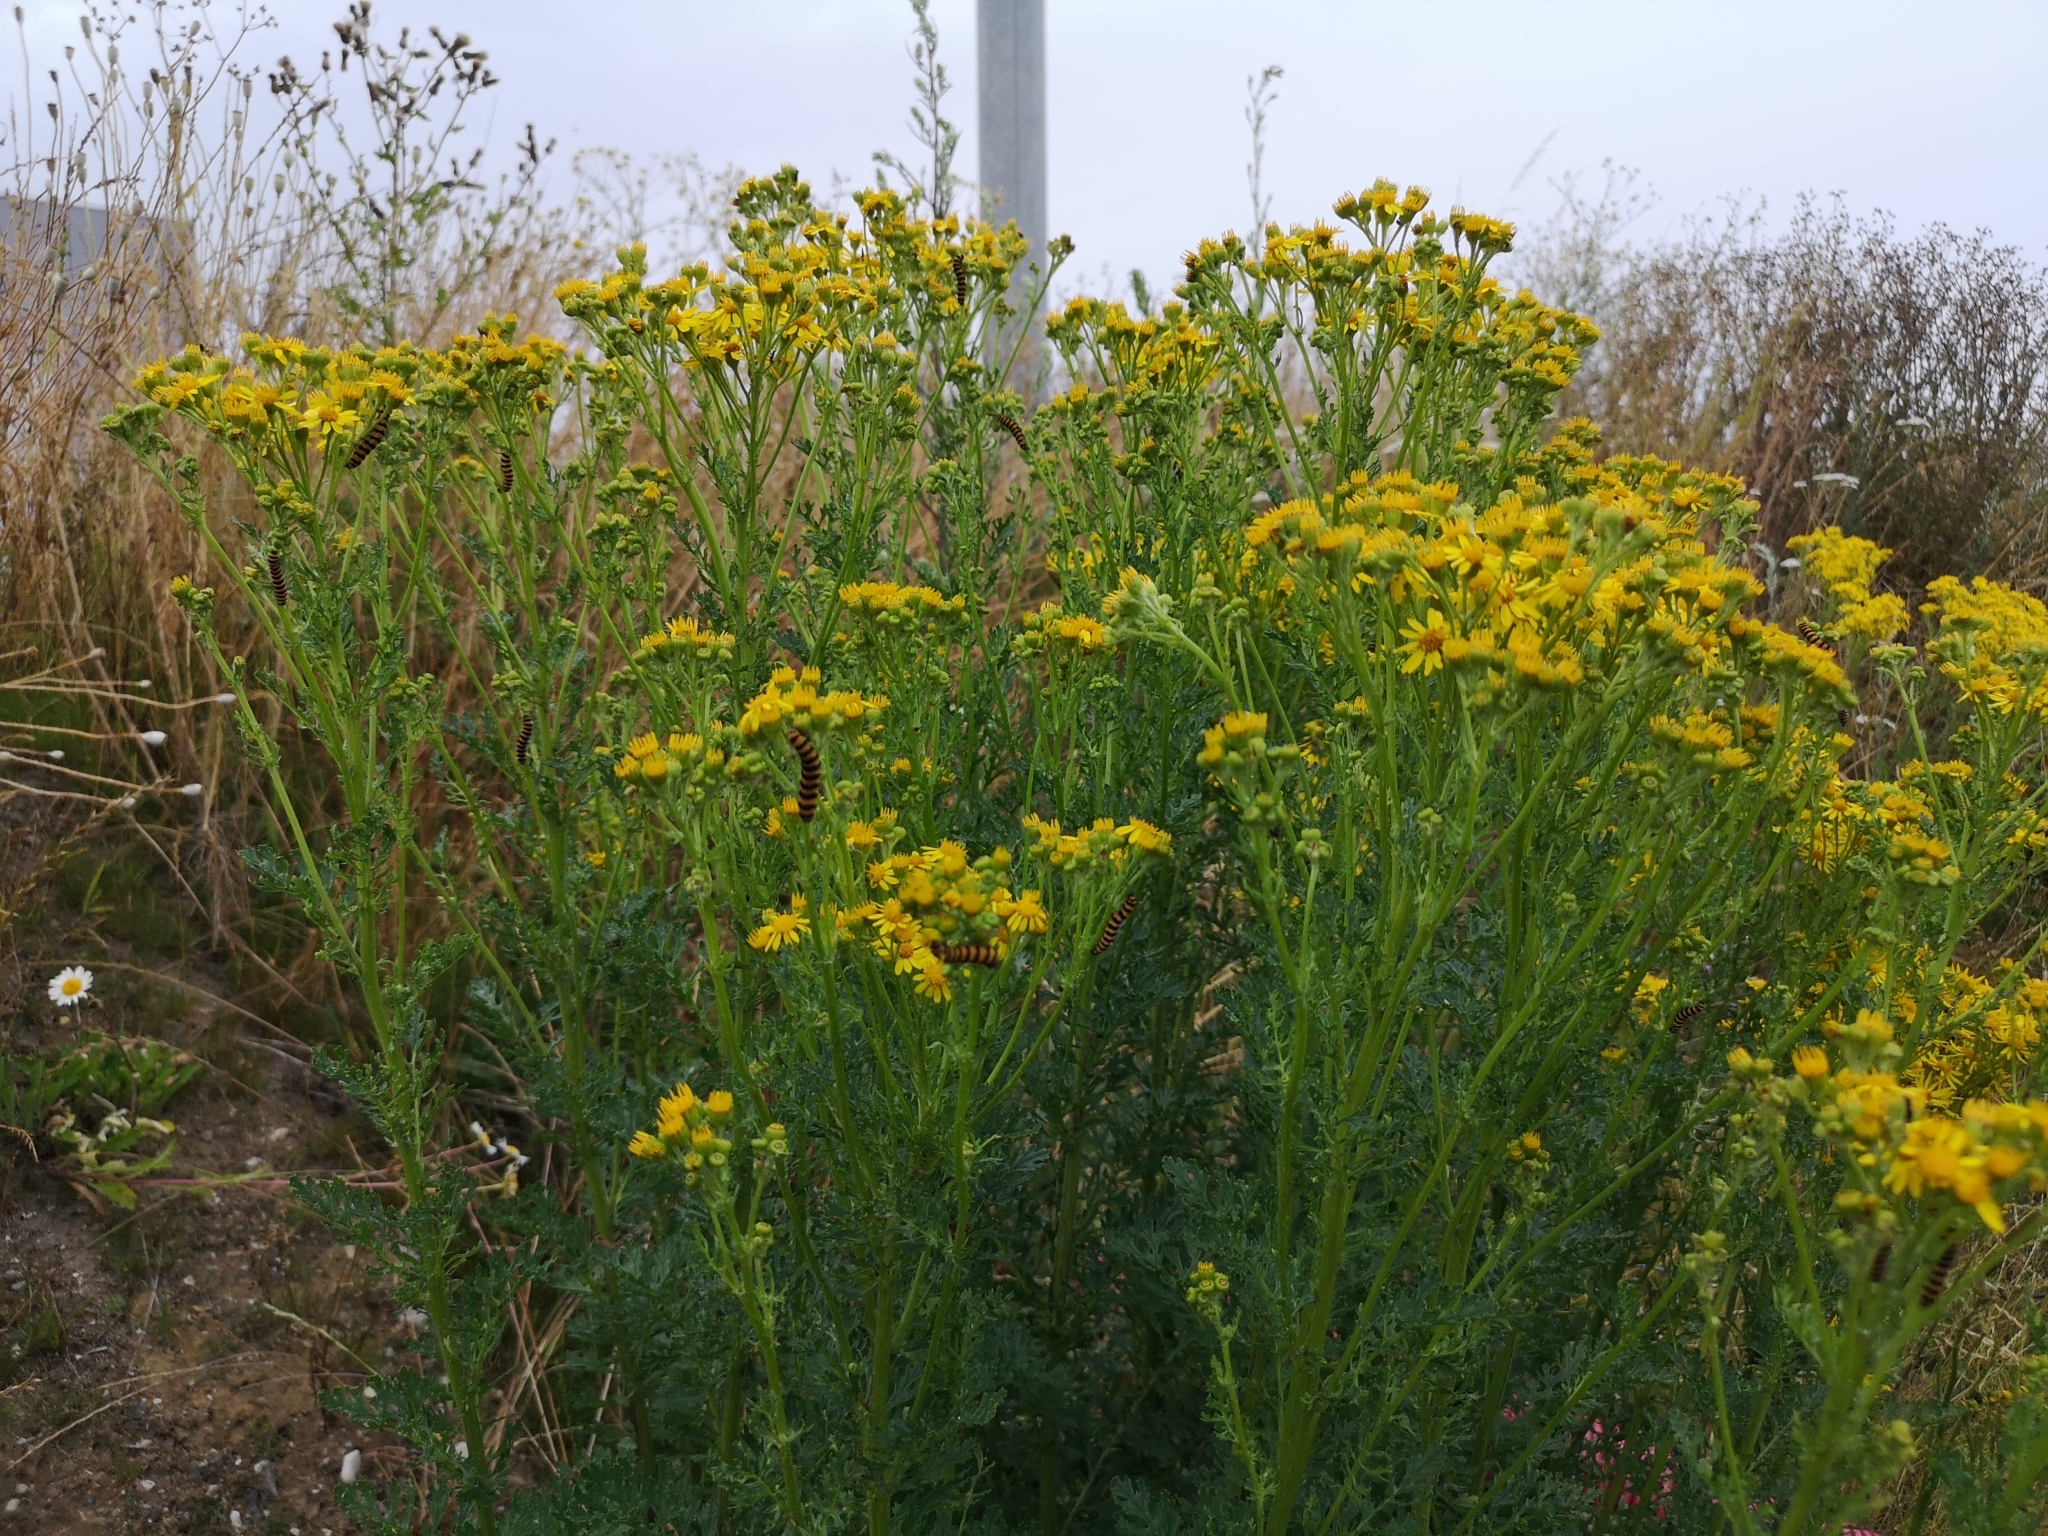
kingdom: Plantae
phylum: Tracheophyta
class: Magnoliopsida
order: Asterales
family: Asteraceae
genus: Jacobaea
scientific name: Jacobaea vulgaris
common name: Stinking willie
